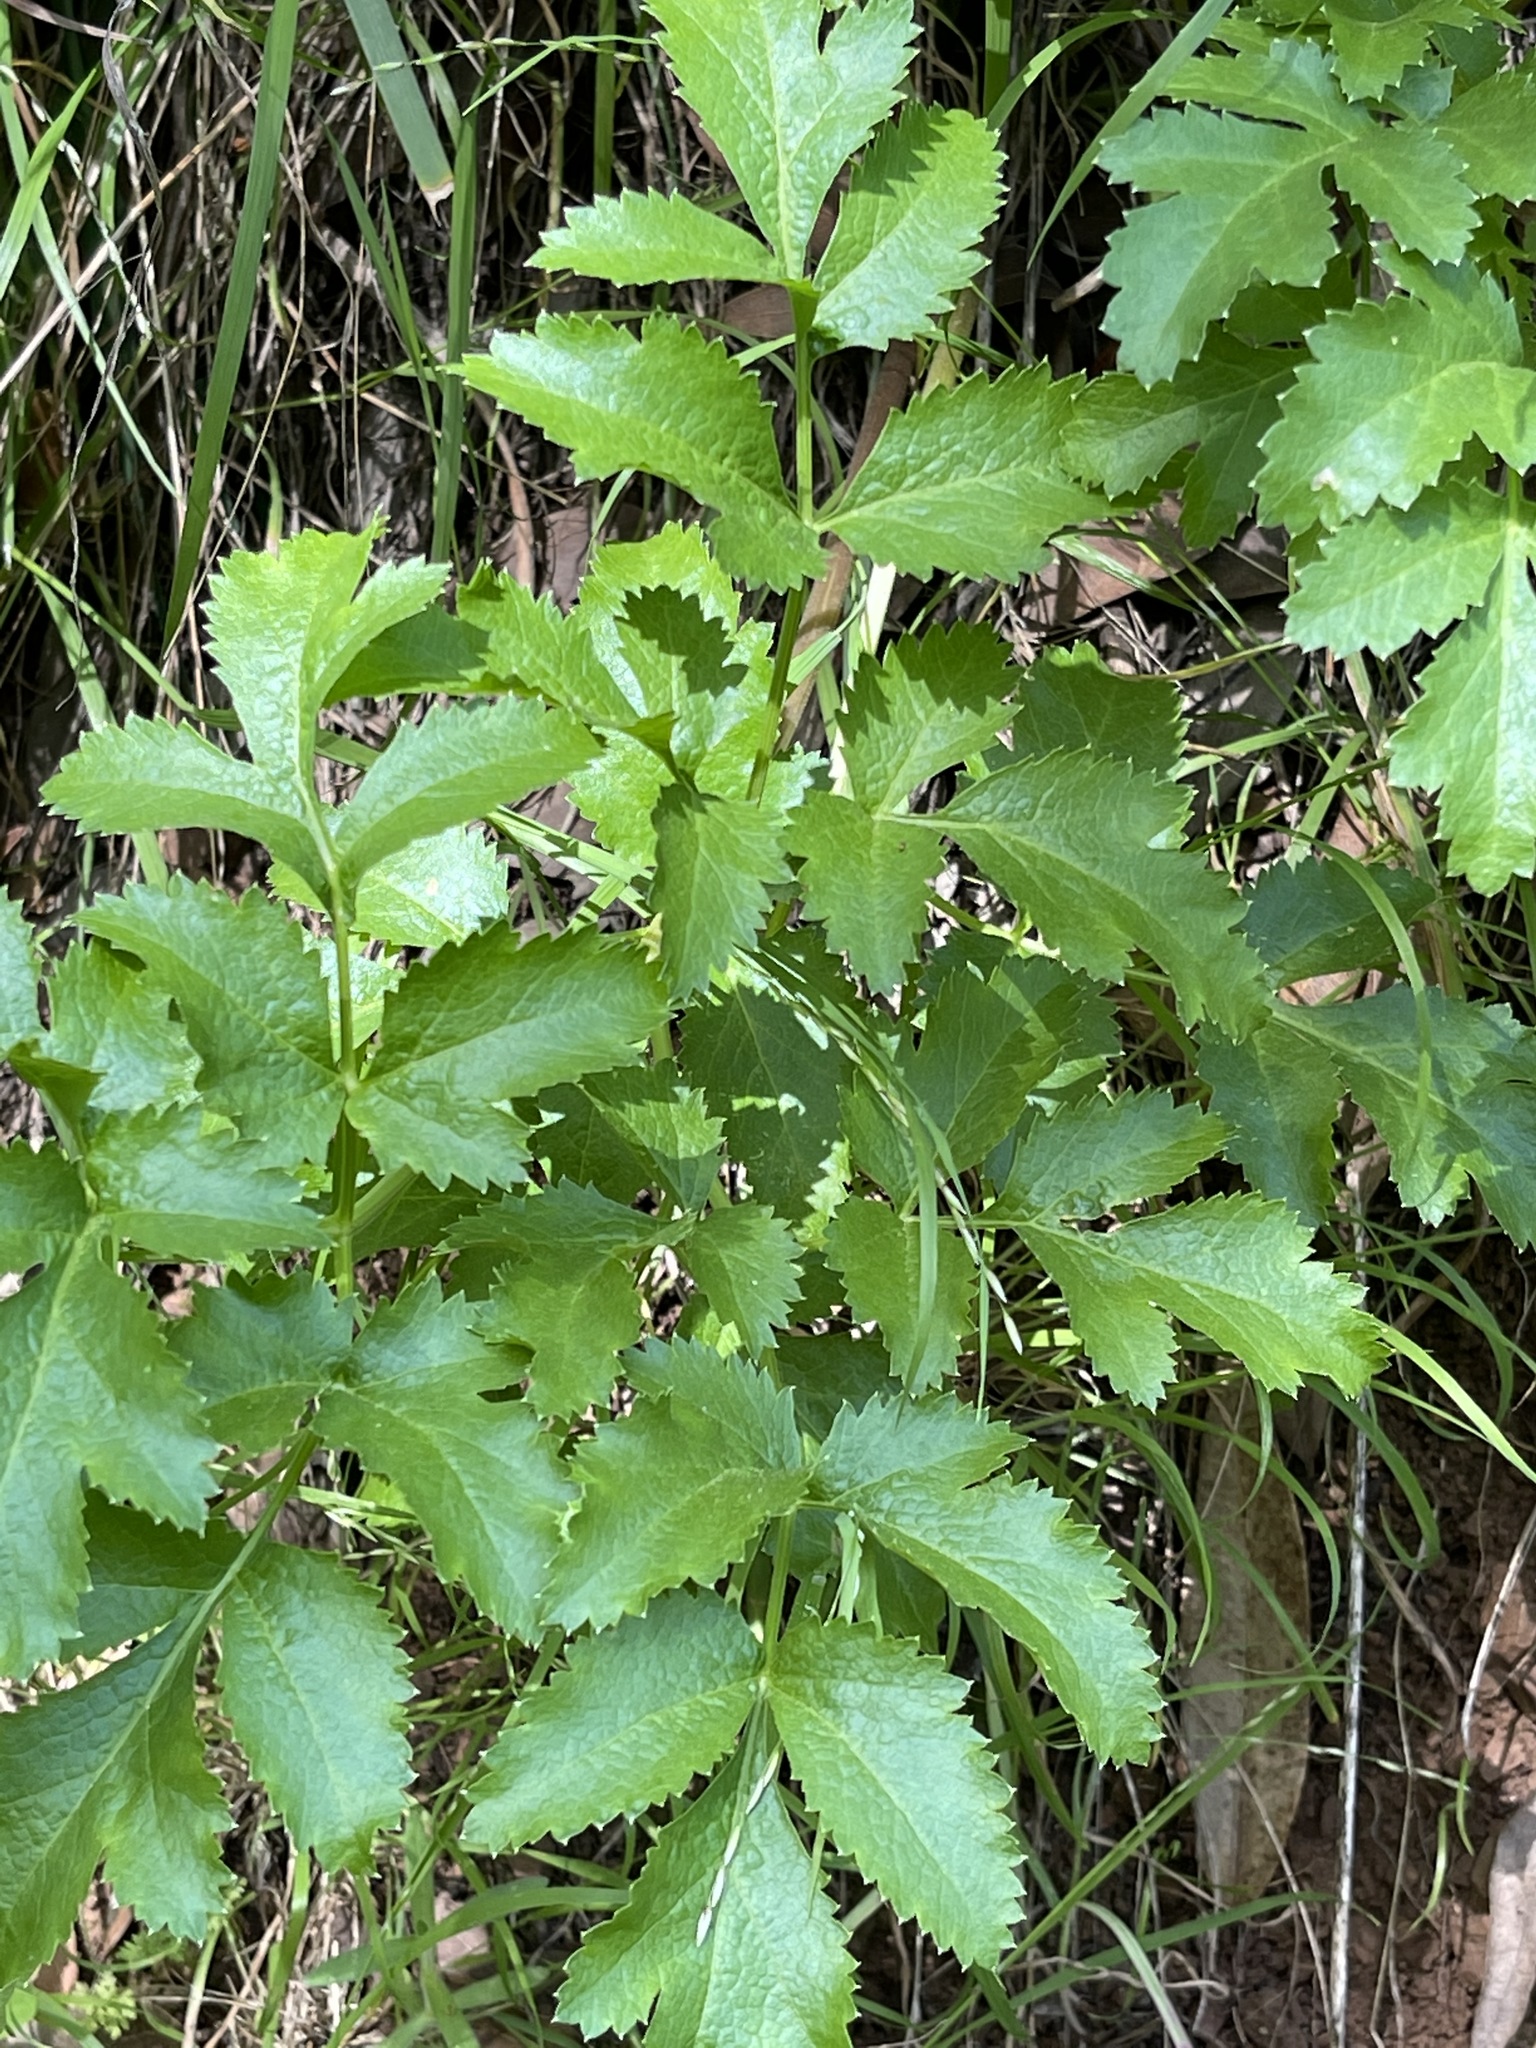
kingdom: Plantae
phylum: Tracheophyta
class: Magnoliopsida
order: Apiales
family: Apiaceae
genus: Tauschia
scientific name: Tauschia hartwegii
